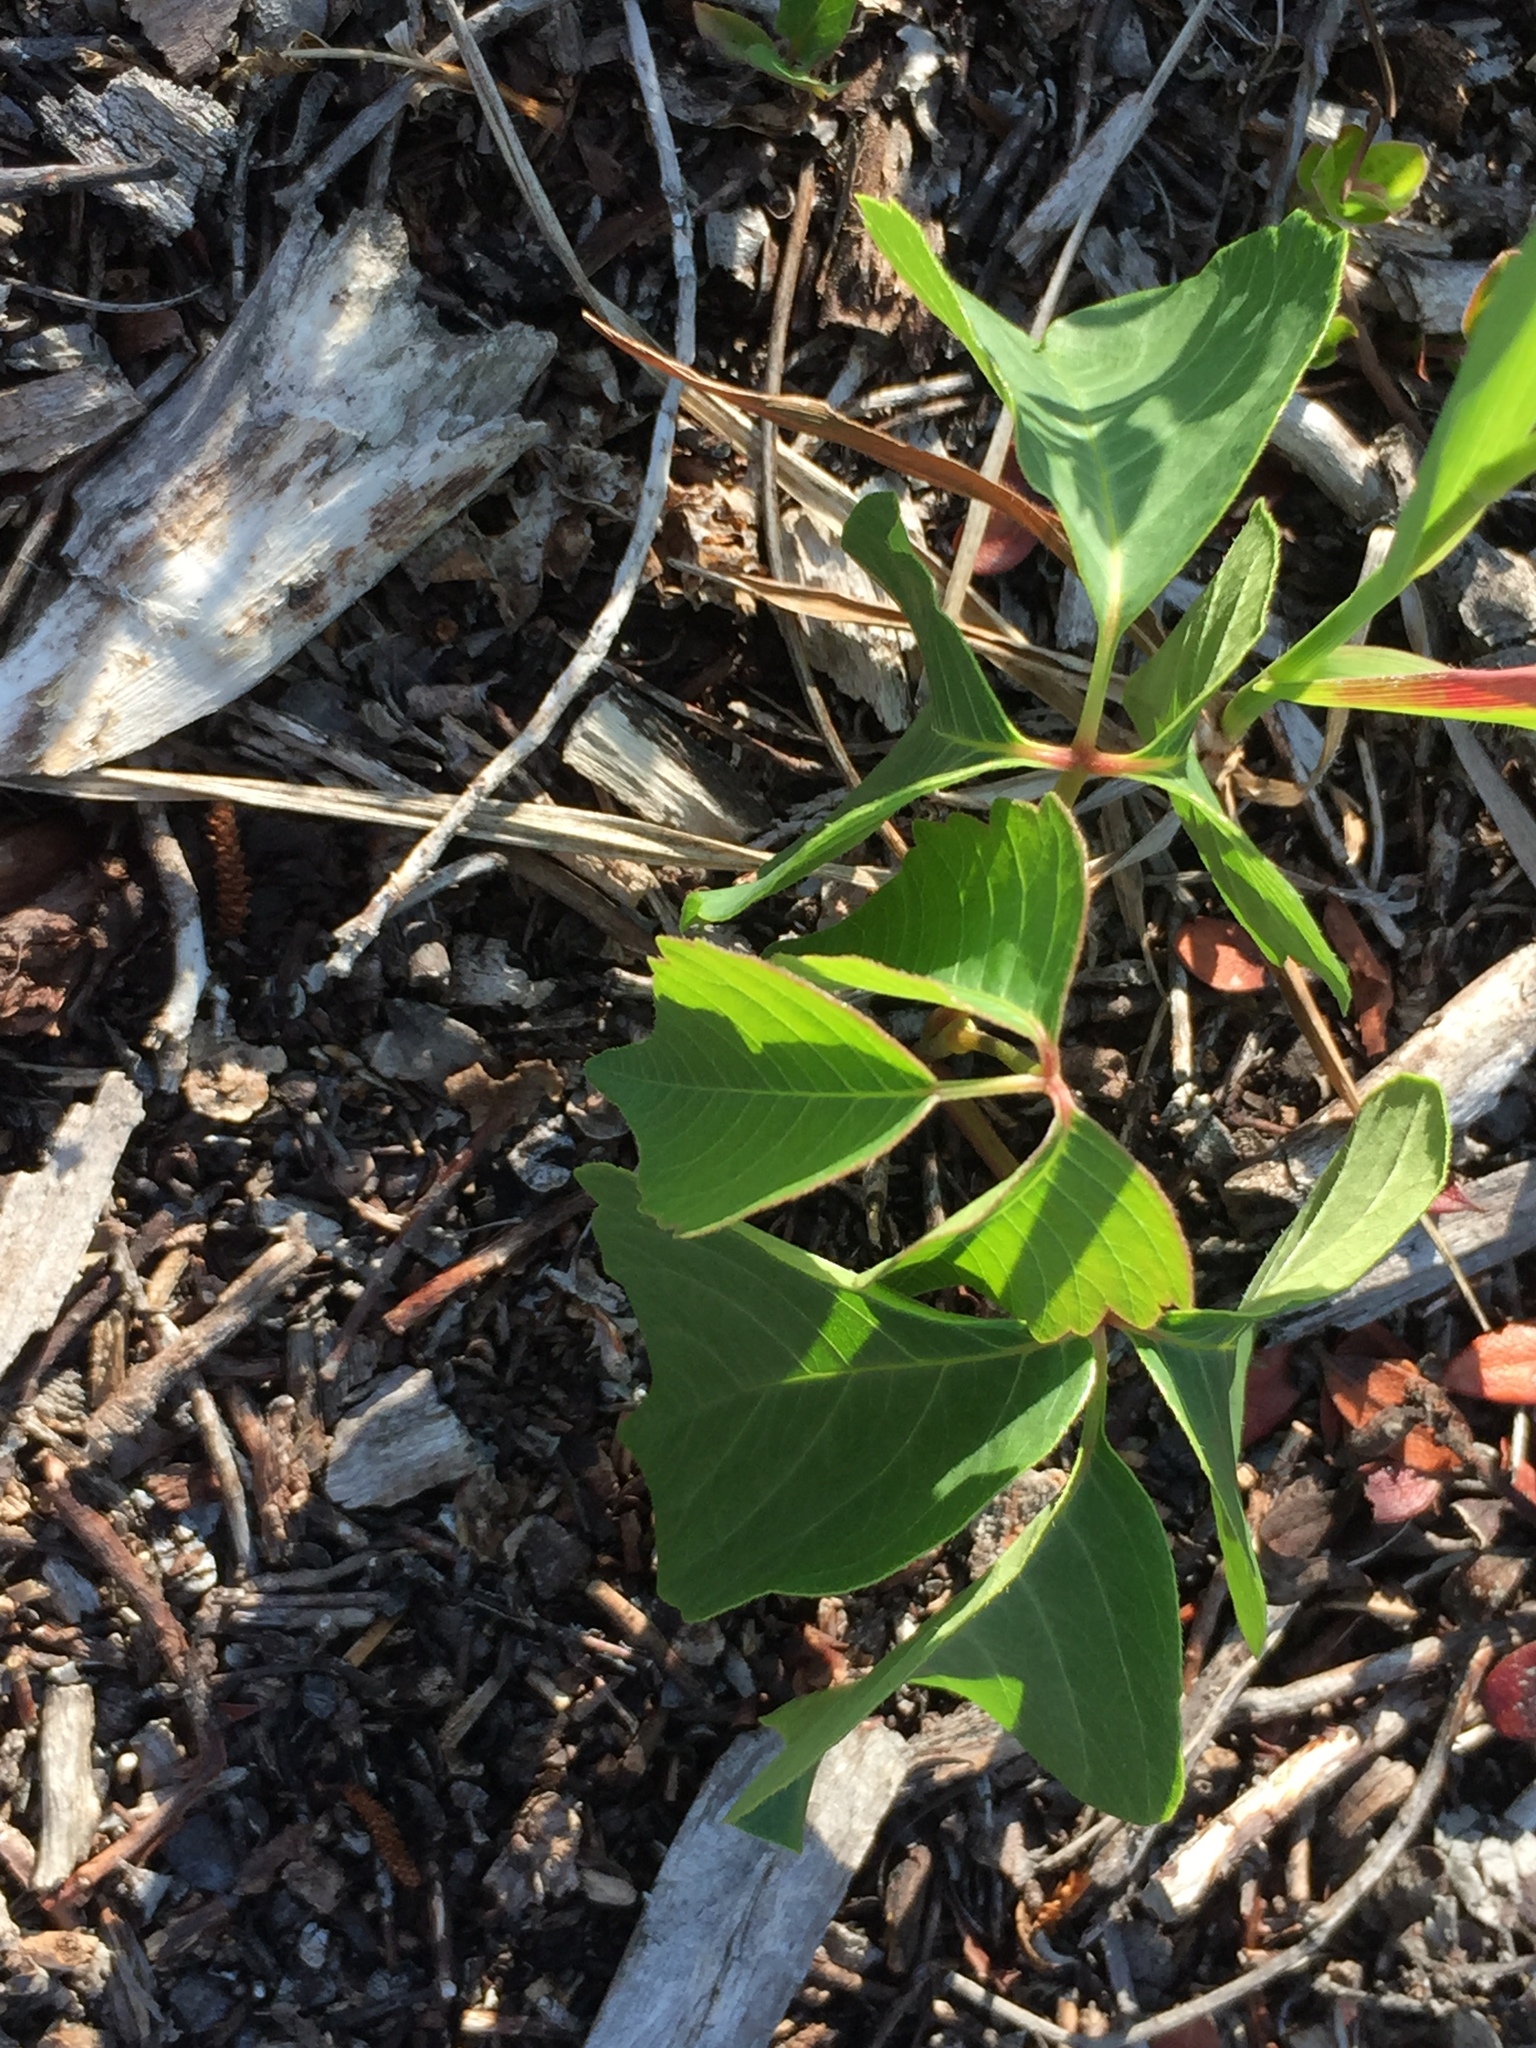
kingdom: Plantae
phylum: Tracheophyta
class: Magnoliopsida
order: Sapindales
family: Anacardiaceae
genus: Toxicodendron
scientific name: Toxicodendron rydbergii
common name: Rydberg's poison-ivy
